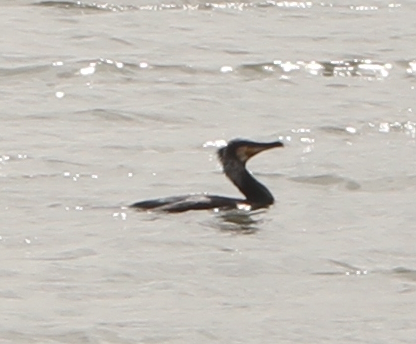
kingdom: Animalia
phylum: Chordata
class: Aves
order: Suliformes
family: Phalacrocoracidae
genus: Phalacrocorax
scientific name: Phalacrocorax carbo
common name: Great cormorant
